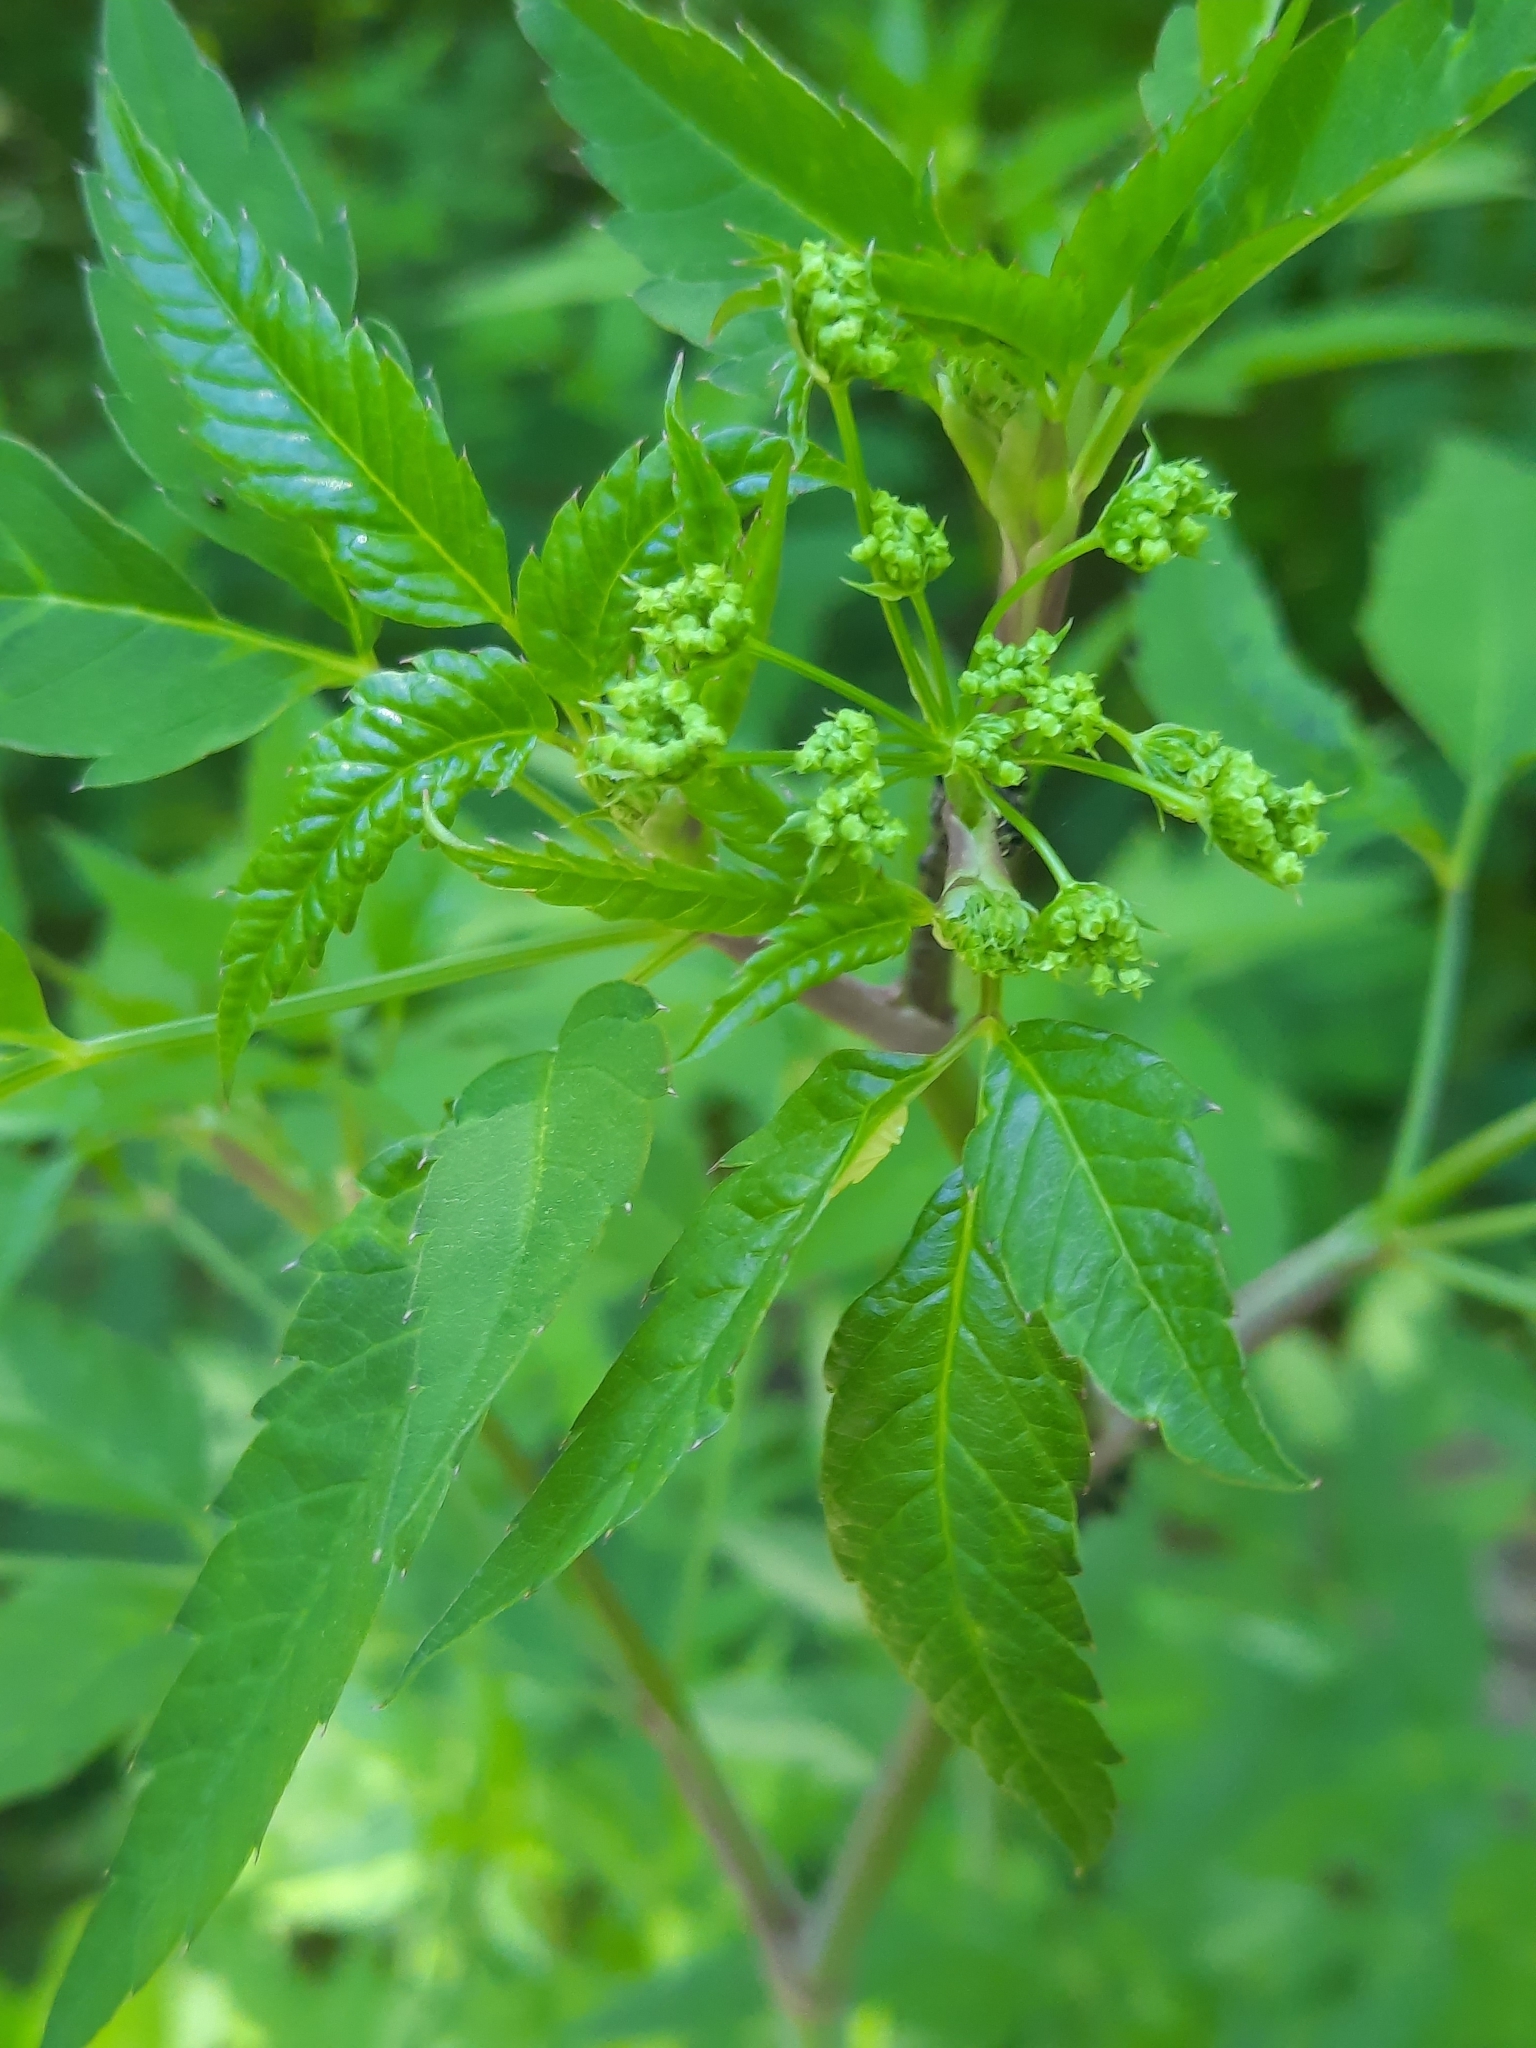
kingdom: Plantae
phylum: Tracheophyta
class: Magnoliopsida
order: Apiales
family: Apiaceae
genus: Cicuta
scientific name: Cicuta maculata
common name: Spotted cowbane
